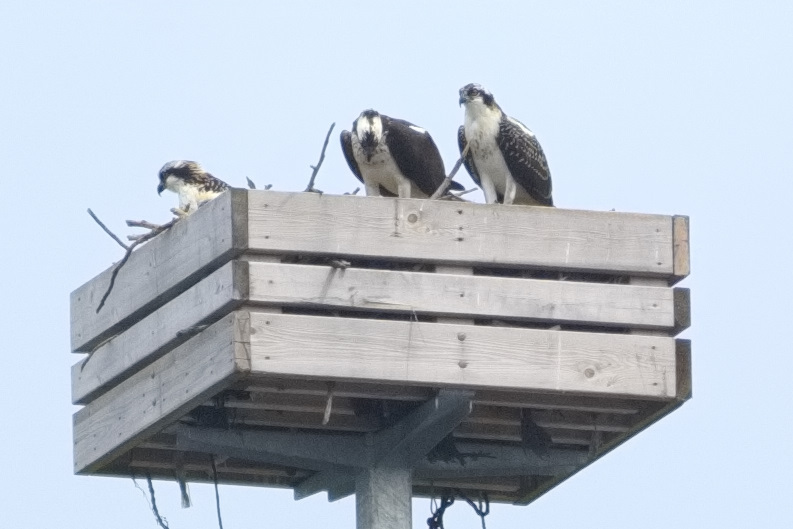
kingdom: Animalia
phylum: Chordata
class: Aves
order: Accipitriformes
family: Pandionidae
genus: Pandion
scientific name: Pandion haliaetus
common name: Osprey
